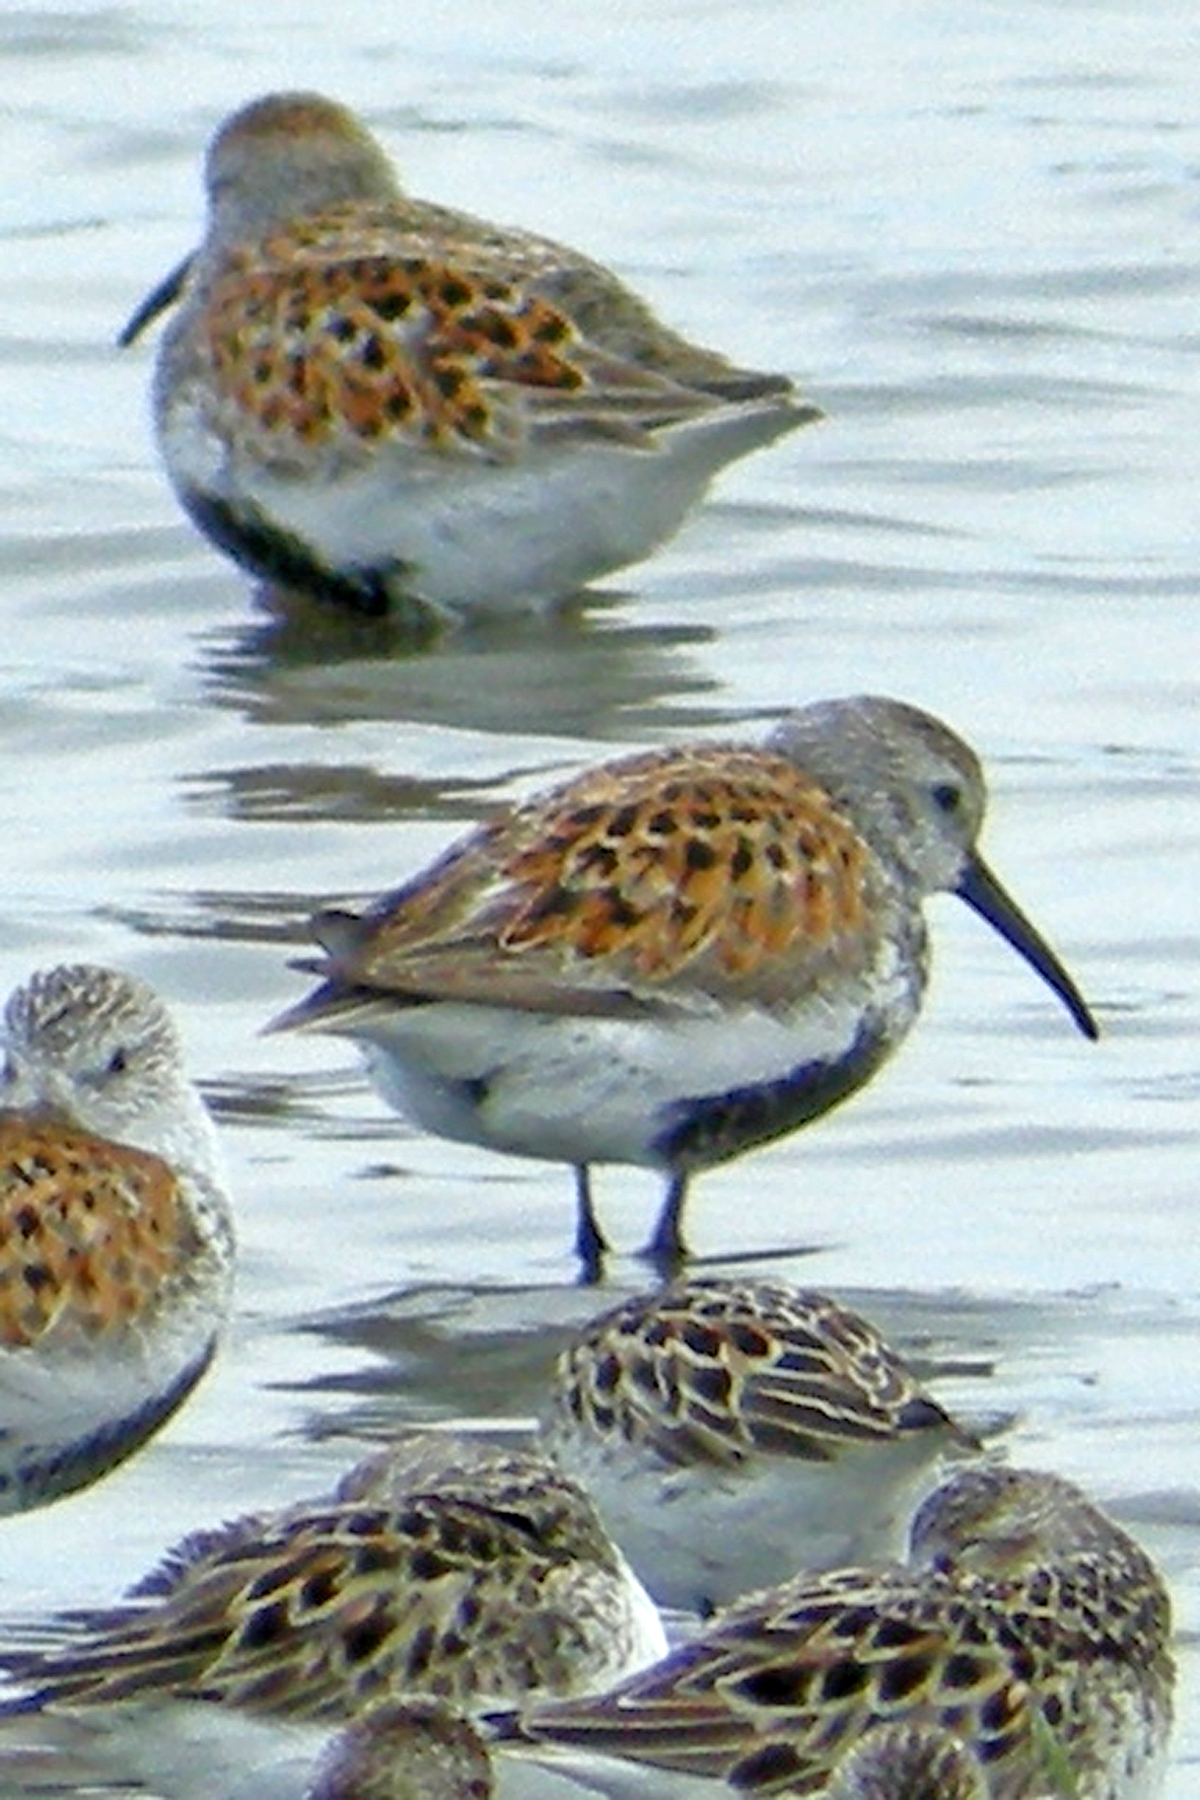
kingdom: Animalia
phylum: Chordata
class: Aves
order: Charadriiformes
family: Scolopacidae
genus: Calidris
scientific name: Calidris alpina
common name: Dunlin
